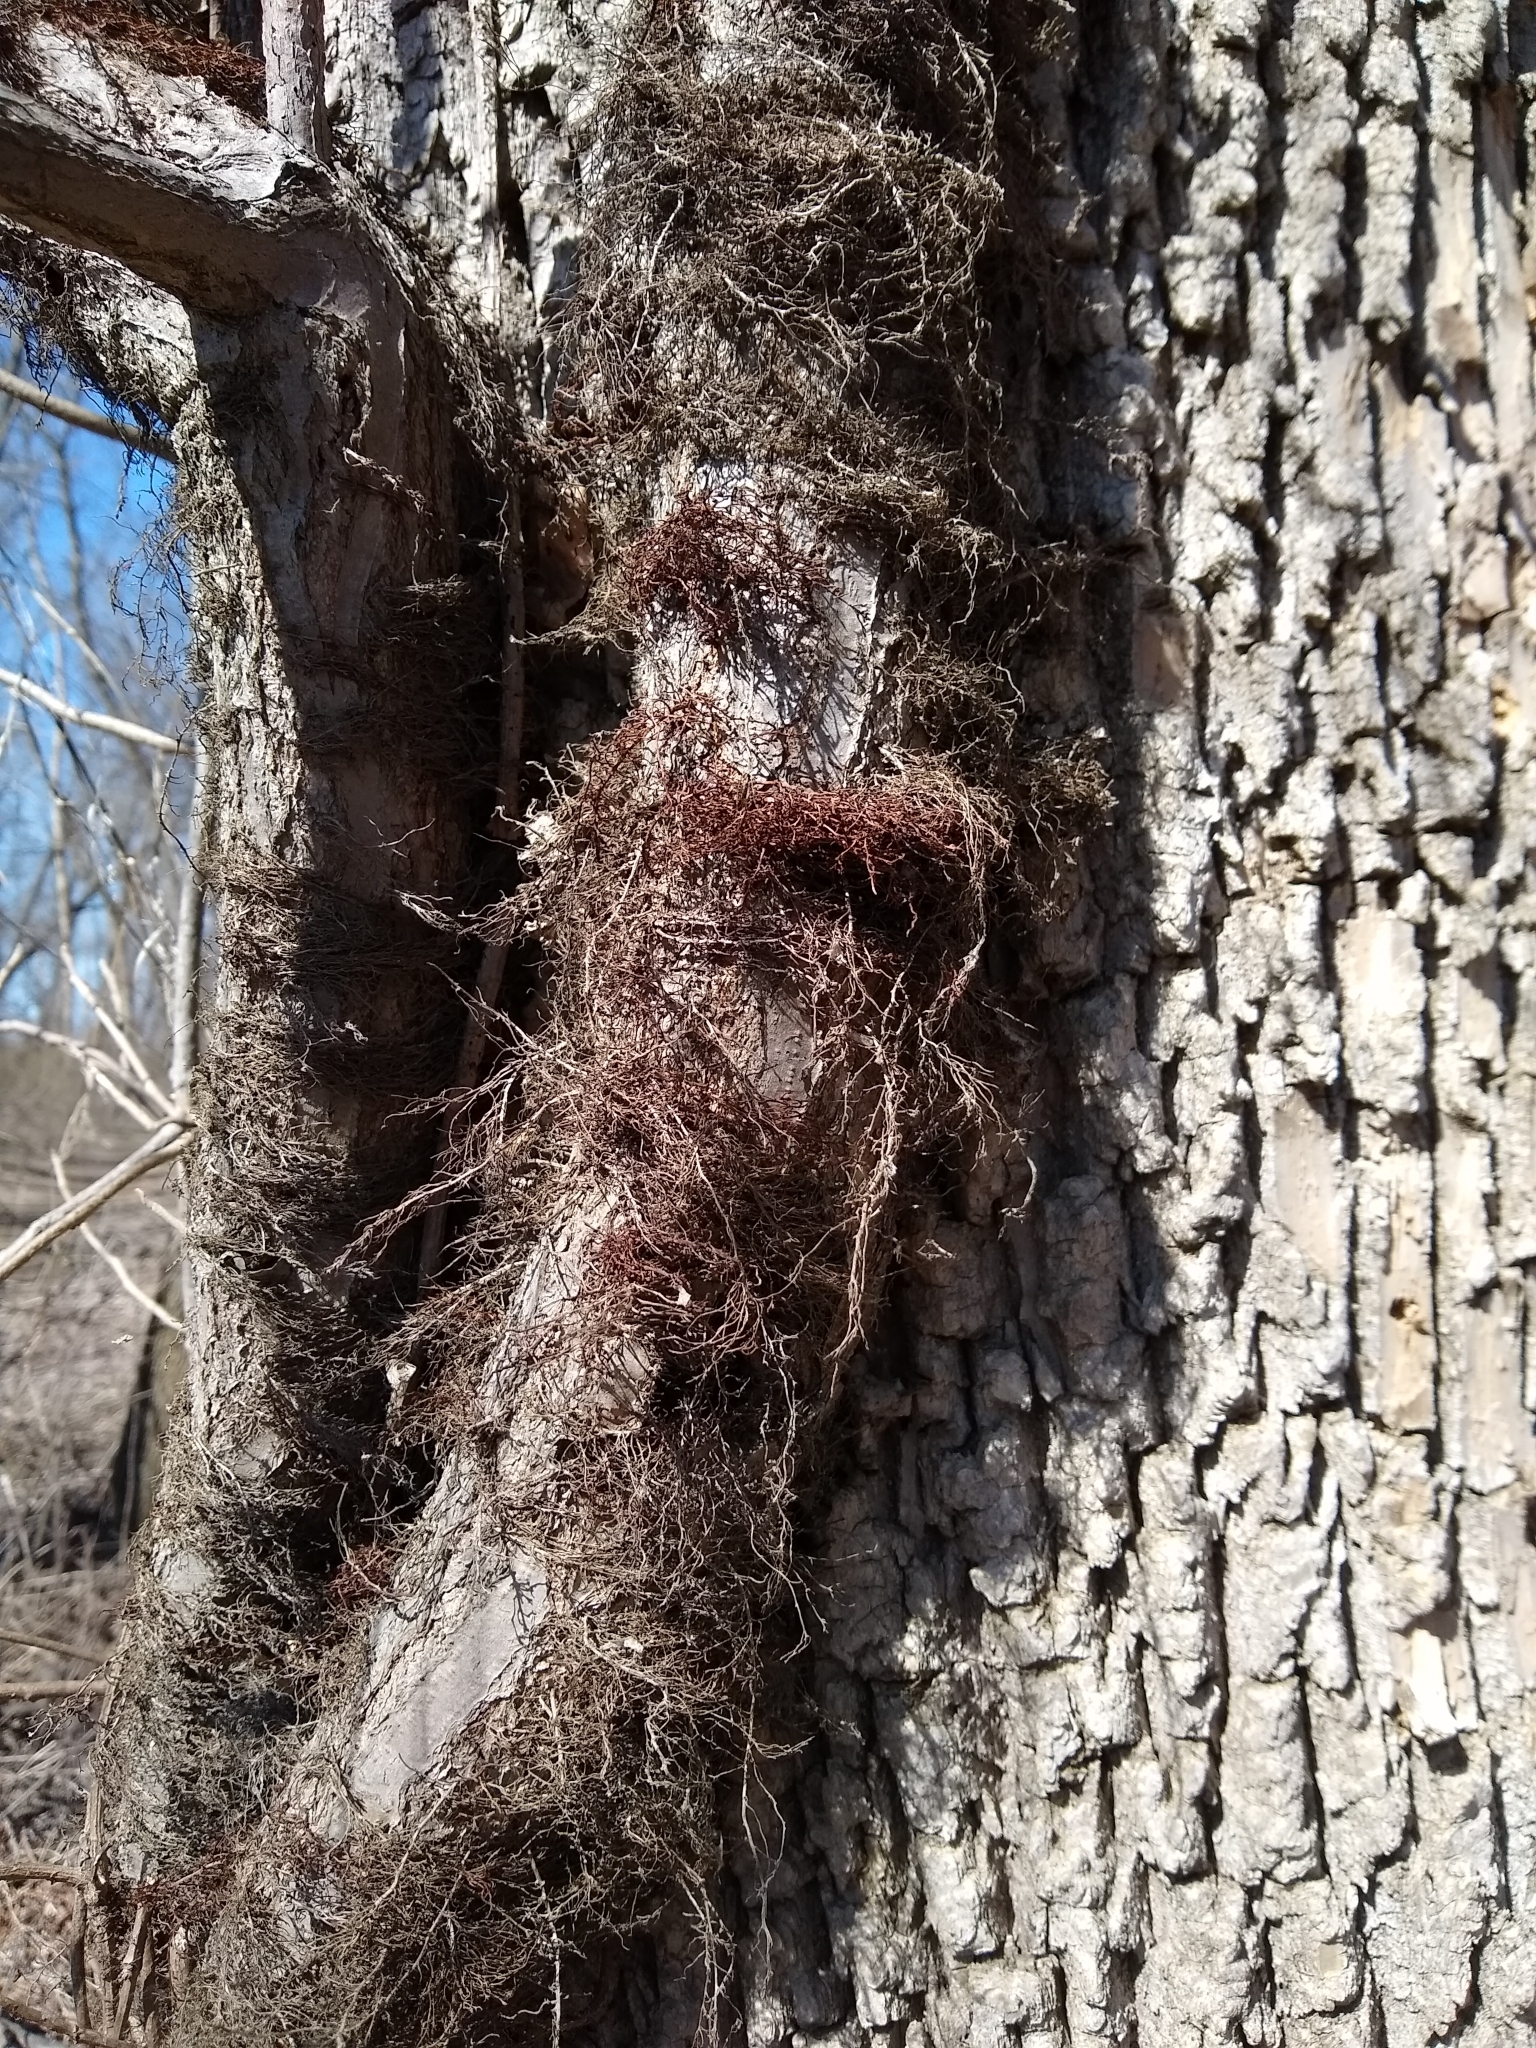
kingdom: Plantae
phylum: Tracheophyta
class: Magnoliopsida
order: Sapindales
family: Anacardiaceae
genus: Toxicodendron
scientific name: Toxicodendron radicans
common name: Poison ivy
